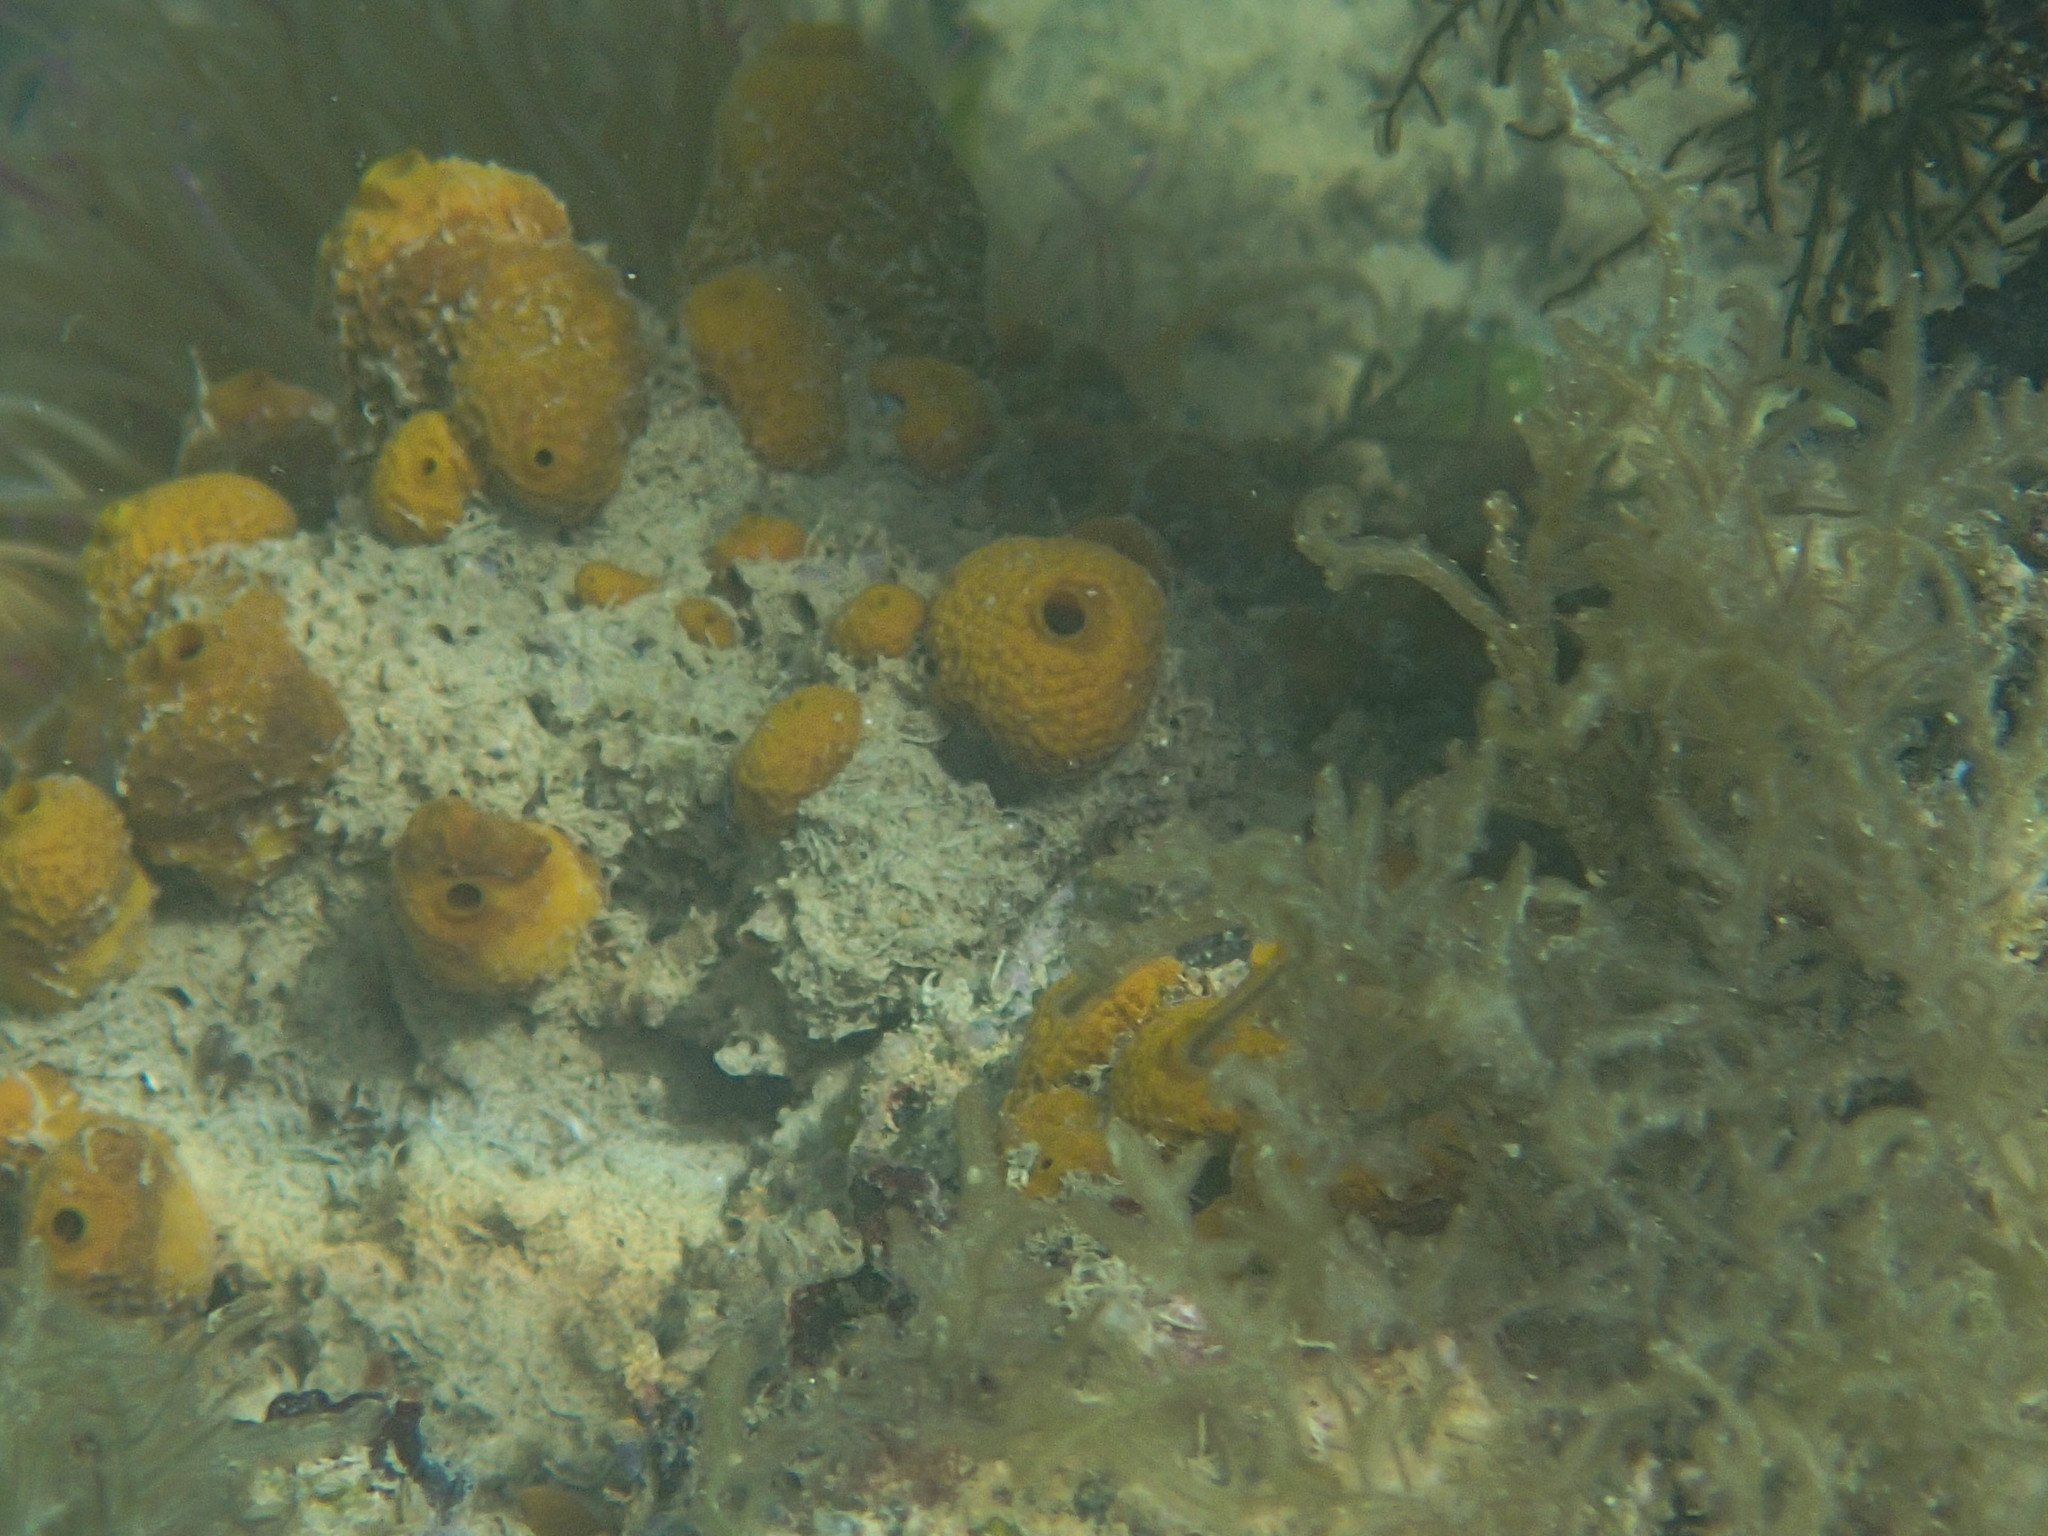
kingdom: Animalia
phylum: Porifera
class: Demospongiae
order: Verongiida
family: Aplysinidae
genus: Aplysina
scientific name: Aplysina aerophoba
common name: Aureate sponge
